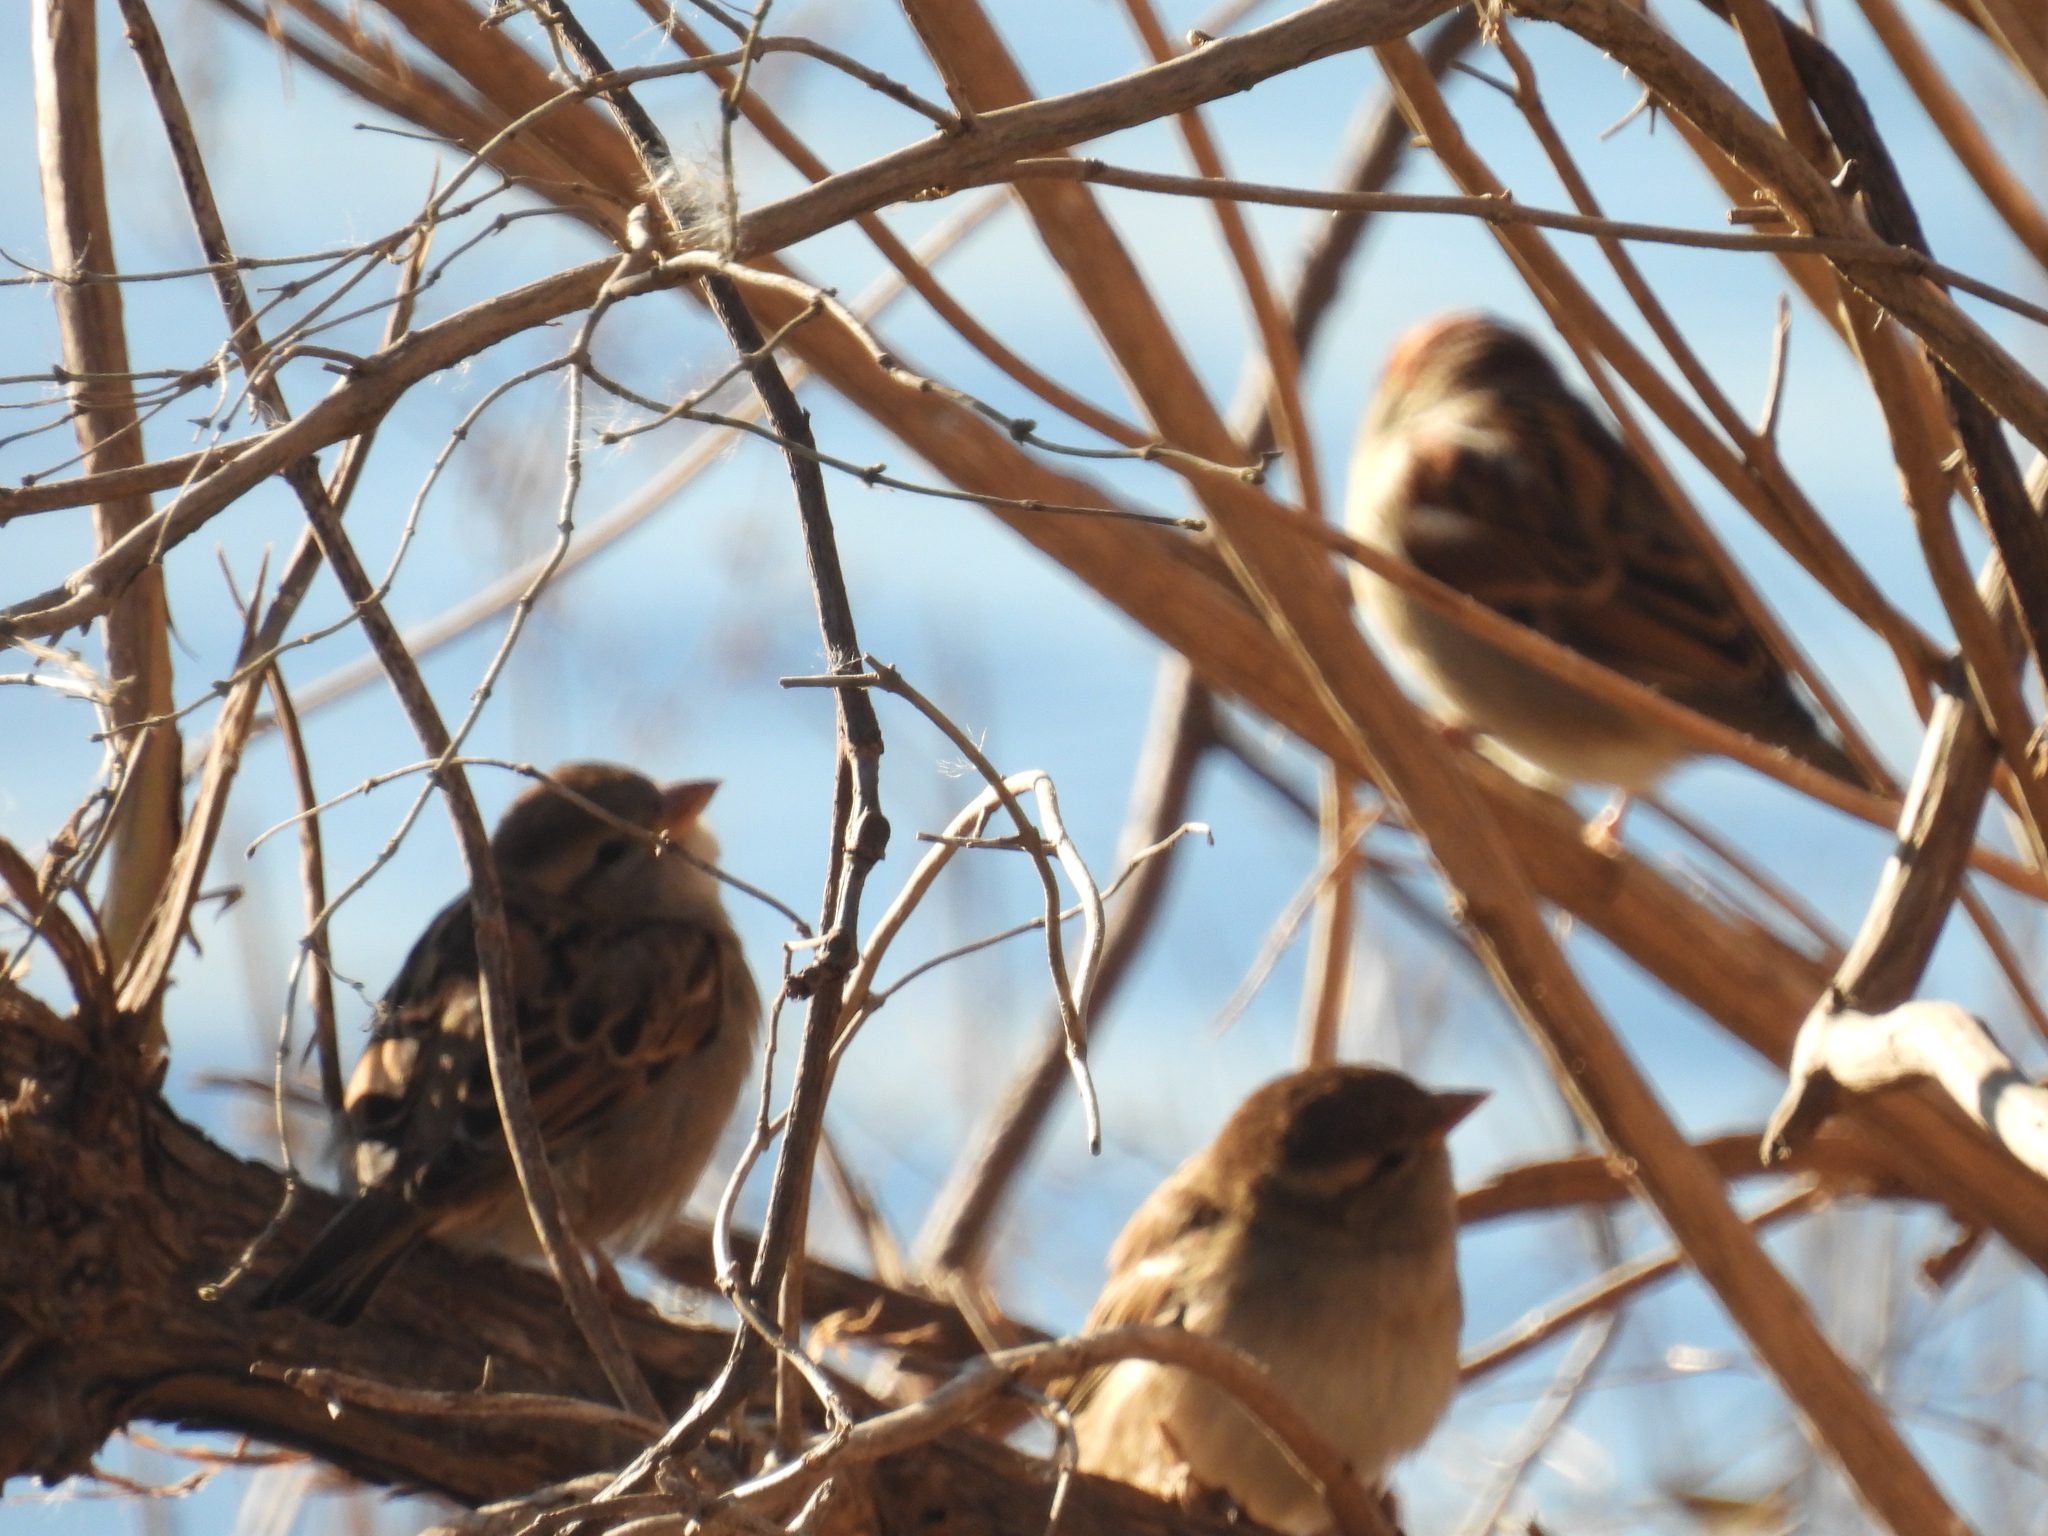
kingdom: Animalia
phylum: Chordata
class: Aves
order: Passeriformes
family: Passeridae
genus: Passer
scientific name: Passer domesticus
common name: House sparrow
